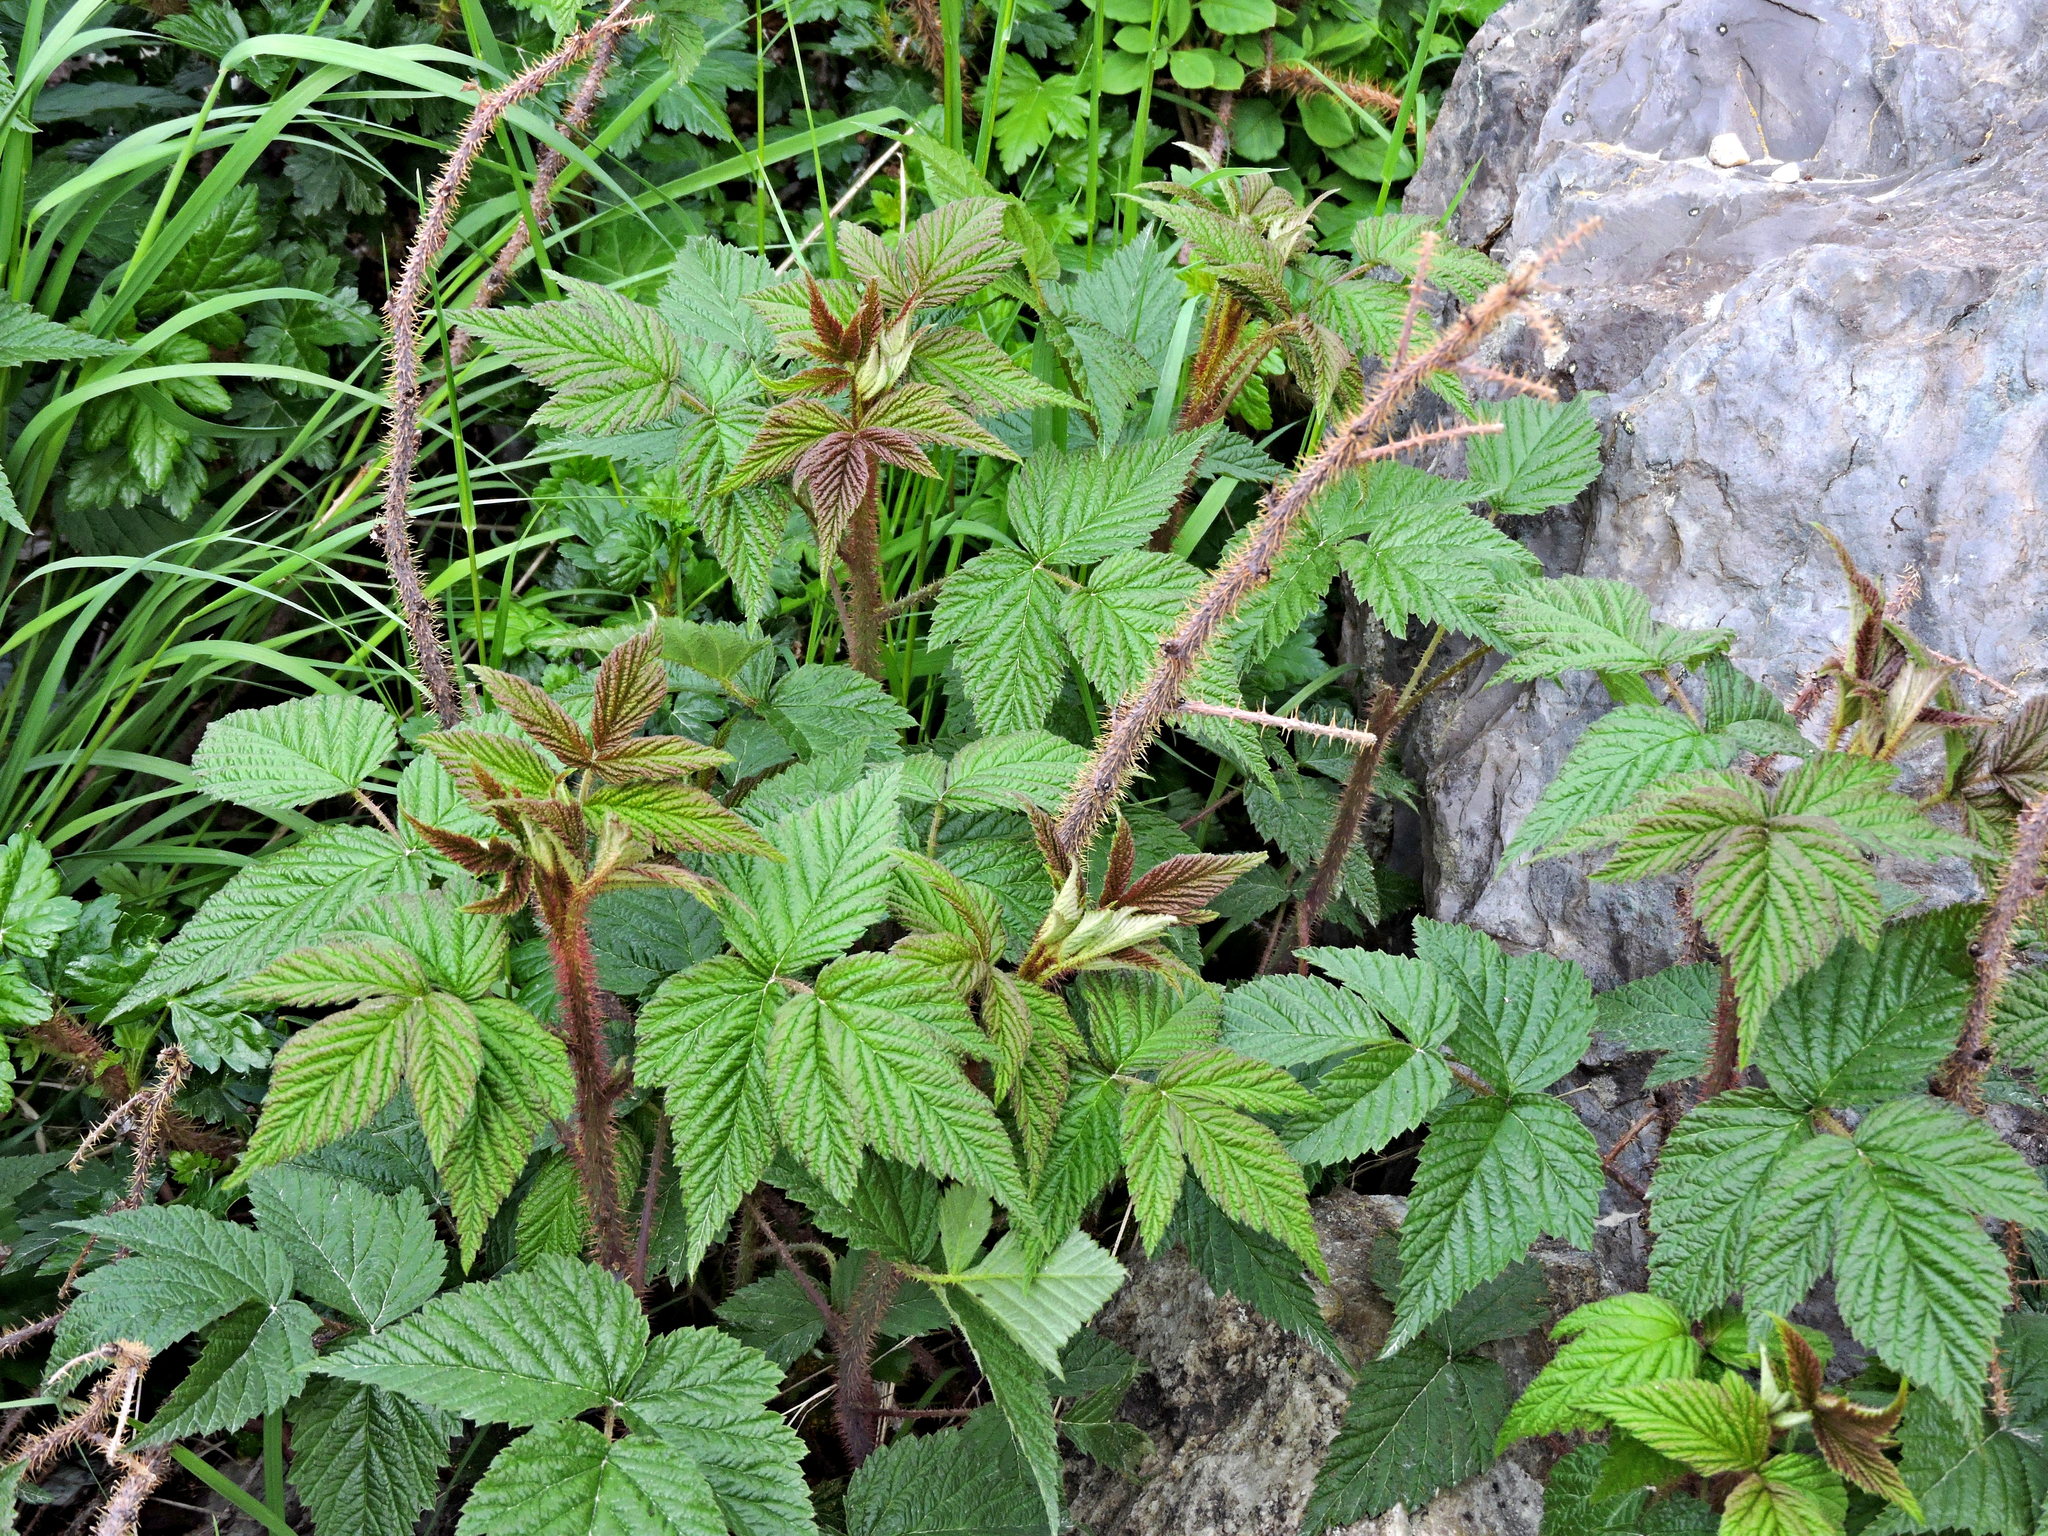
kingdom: Plantae
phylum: Tracheophyta
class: Magnoliopsida
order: Rosales
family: Rosaceae
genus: Rubus
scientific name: Rubus idaeus
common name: Raspberry
